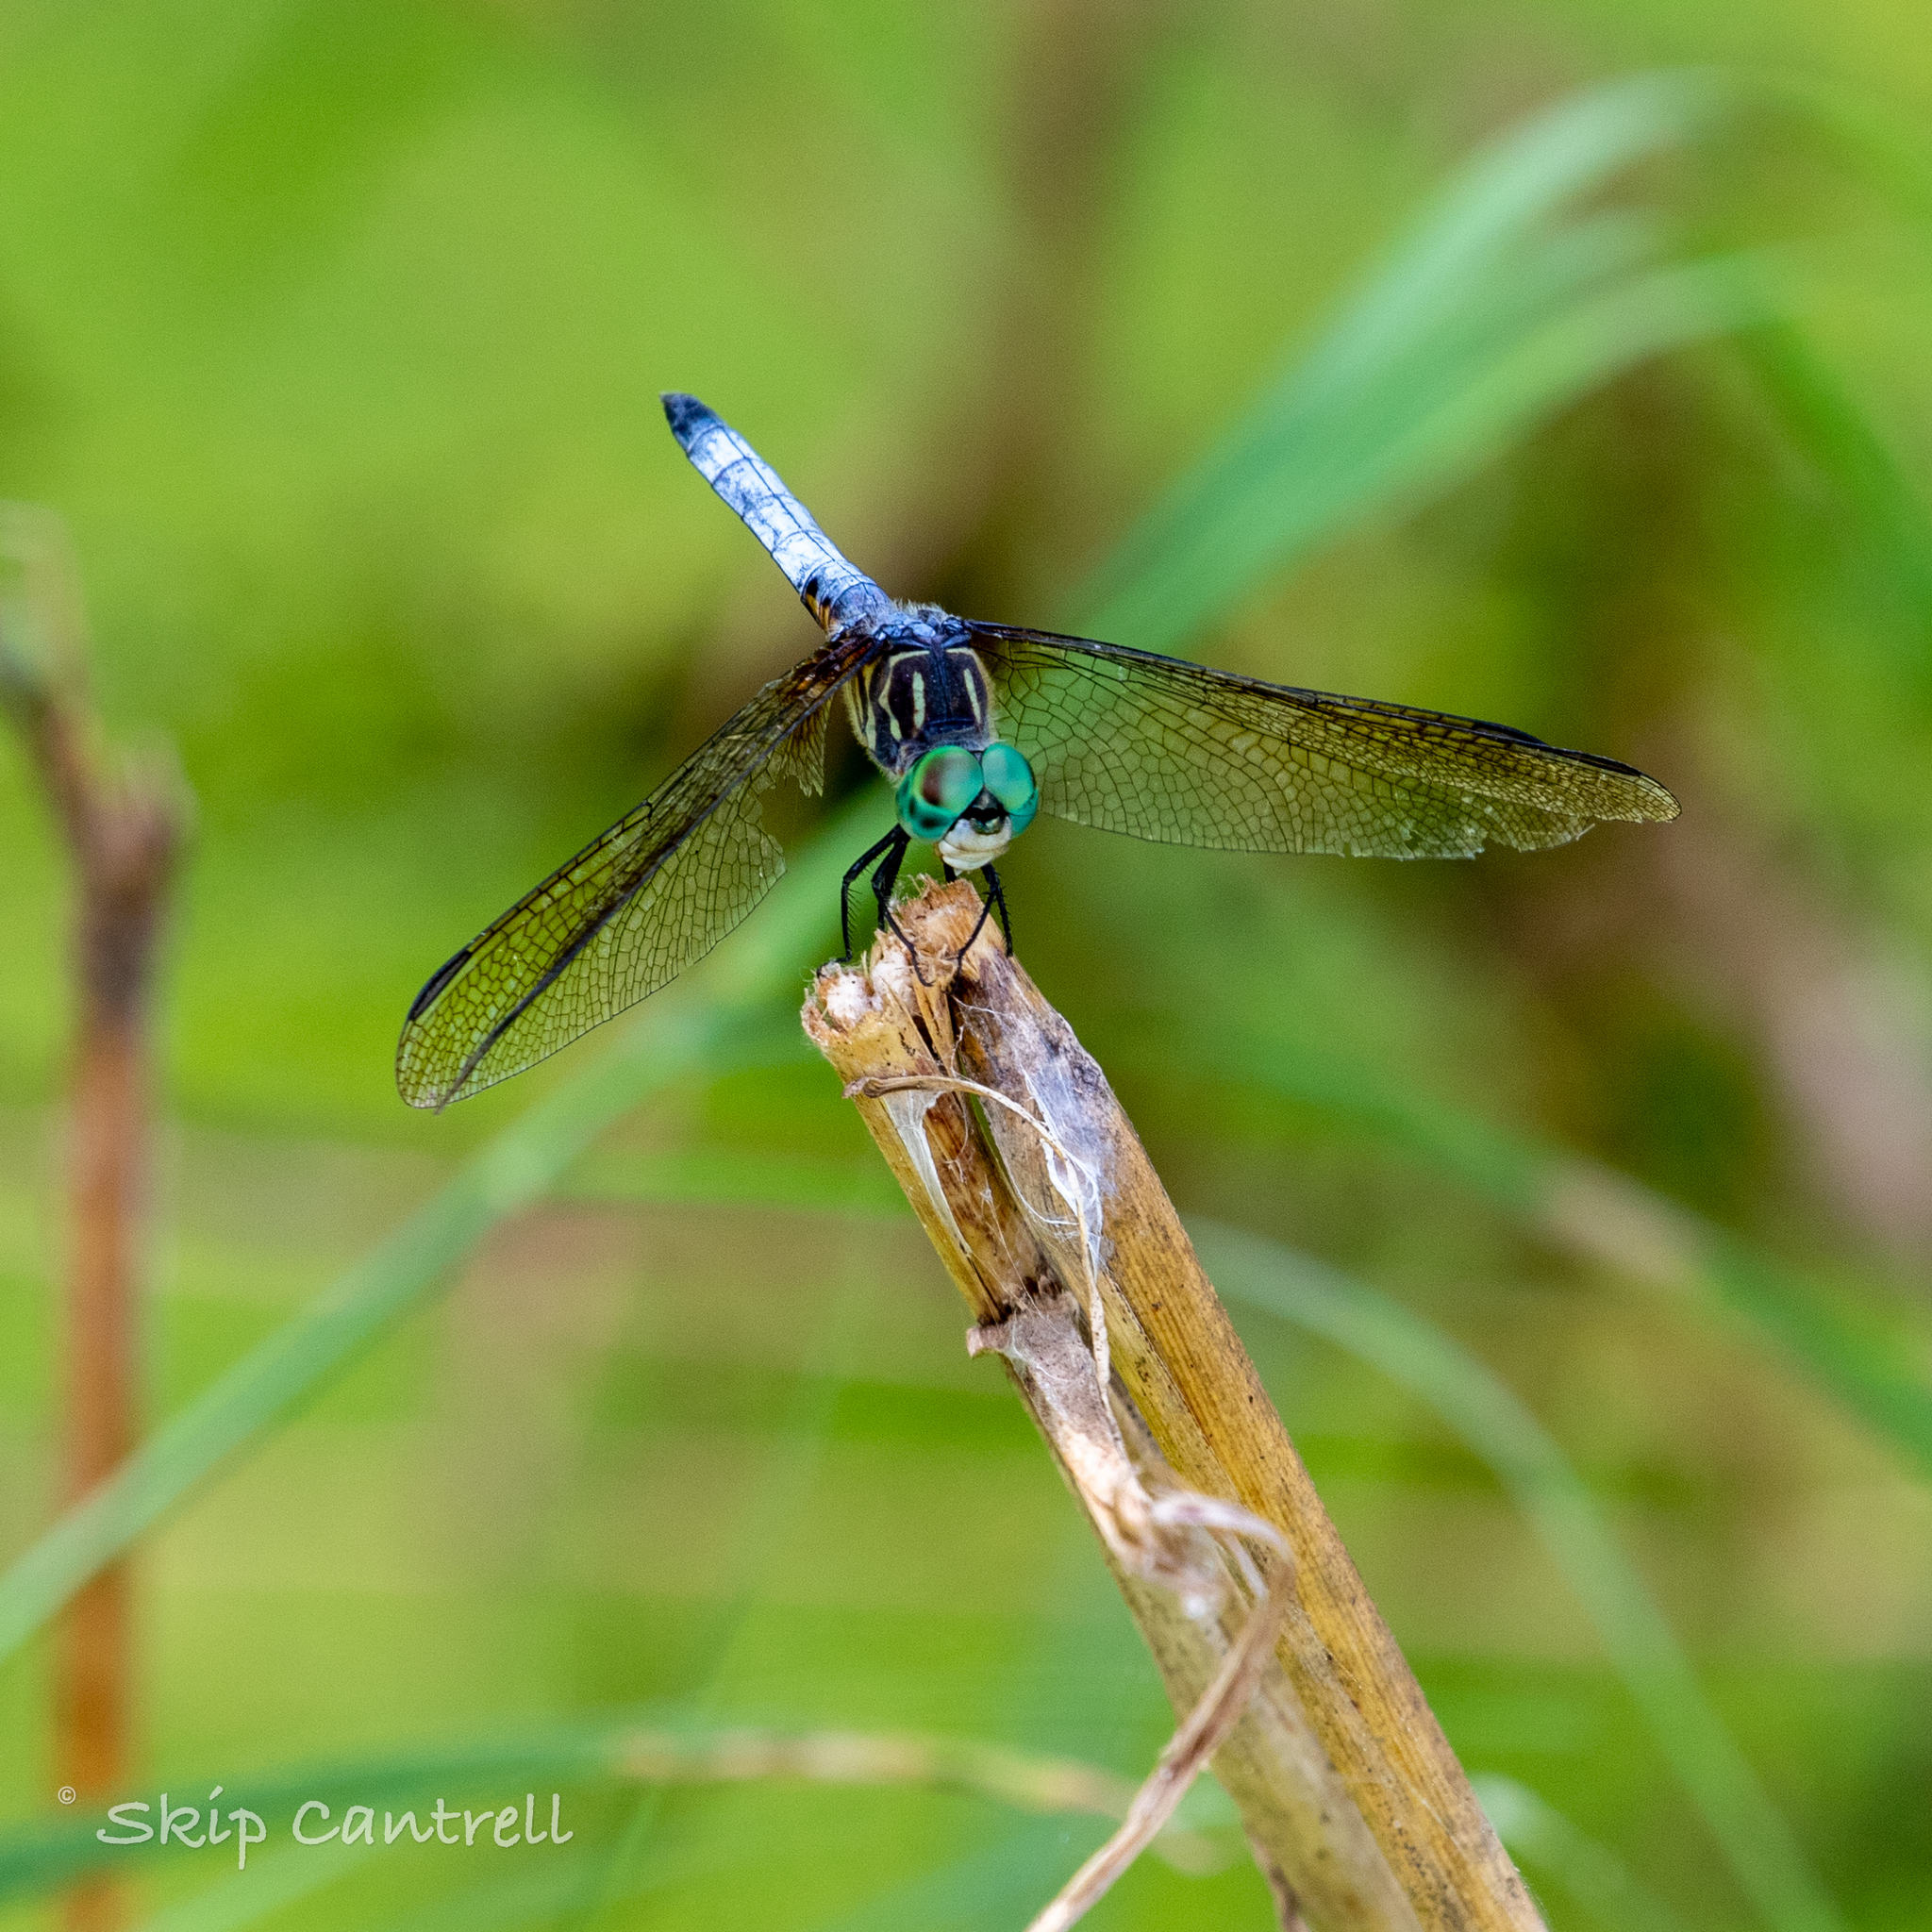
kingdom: Animalia
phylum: Arthropoda
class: Insecta
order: Odonata
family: Libellulidae
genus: Pachydiplax
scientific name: Pachydiplax longipennis
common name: Blue dasher
